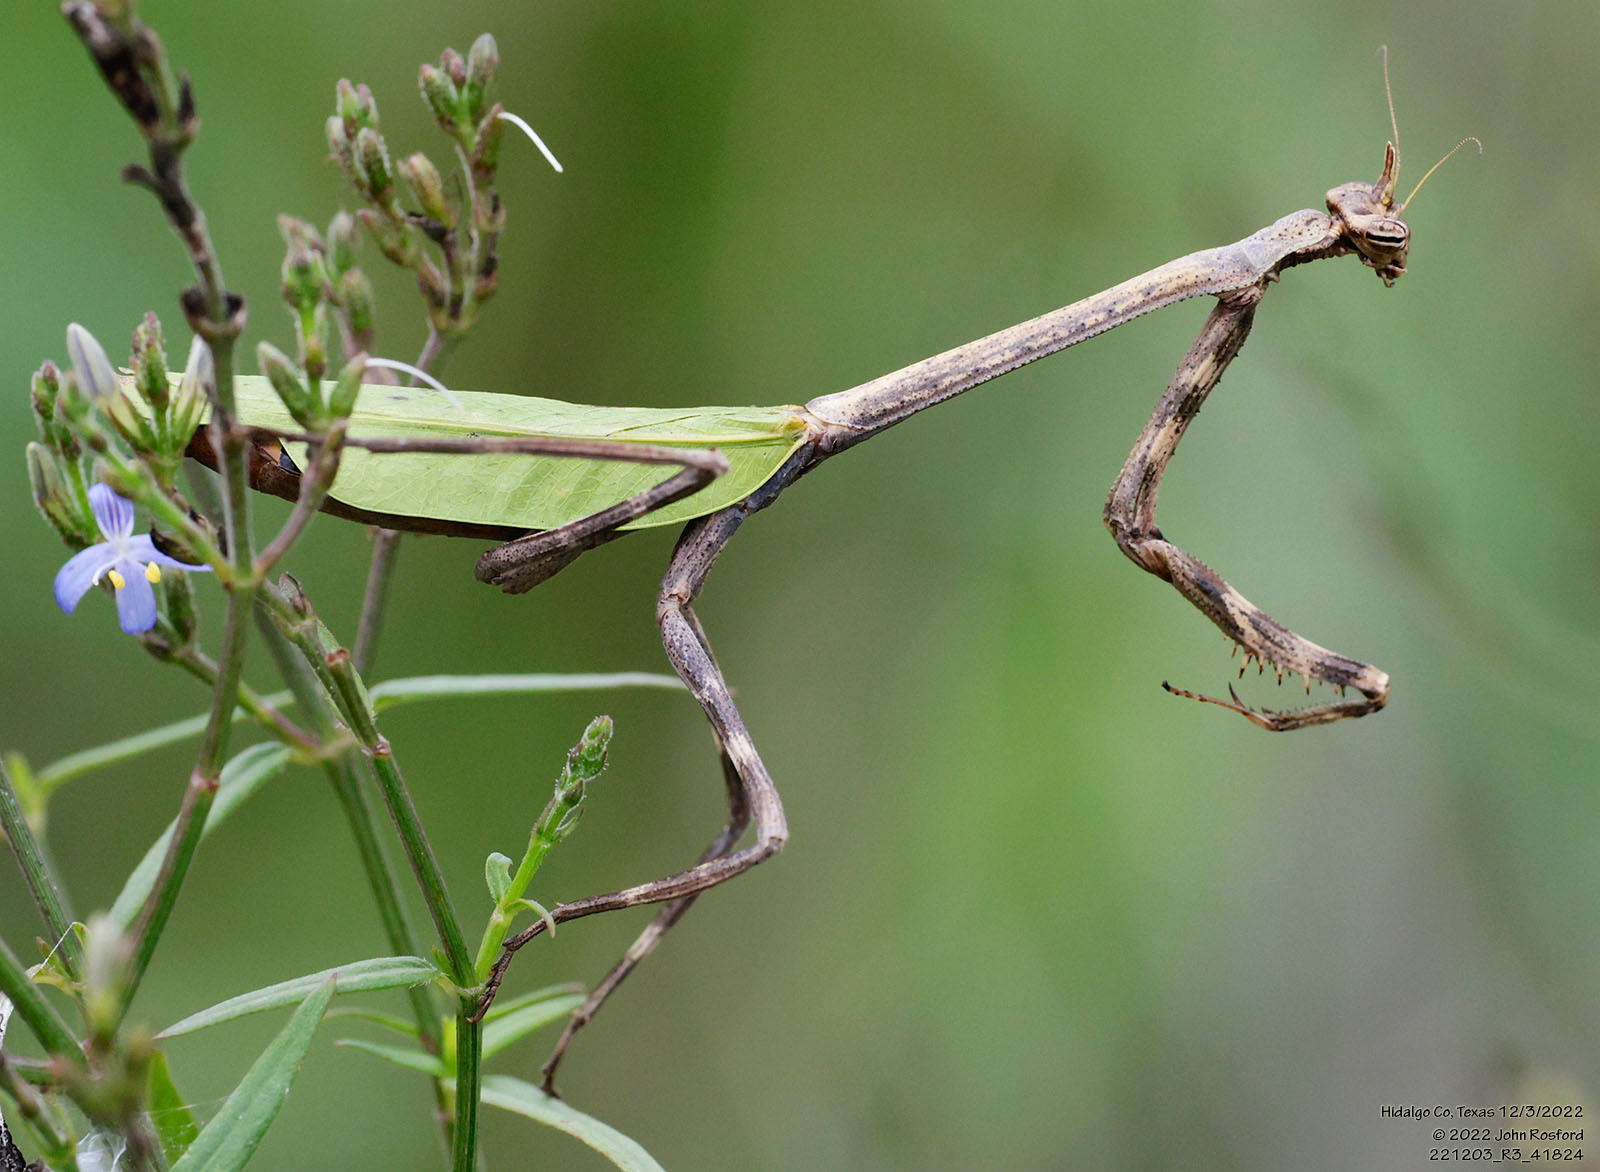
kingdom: Animalia
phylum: Arthropoda
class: Insecta
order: Mantodea
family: Mantidae
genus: Pseudovates
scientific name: Pseudovates chlorophaea
